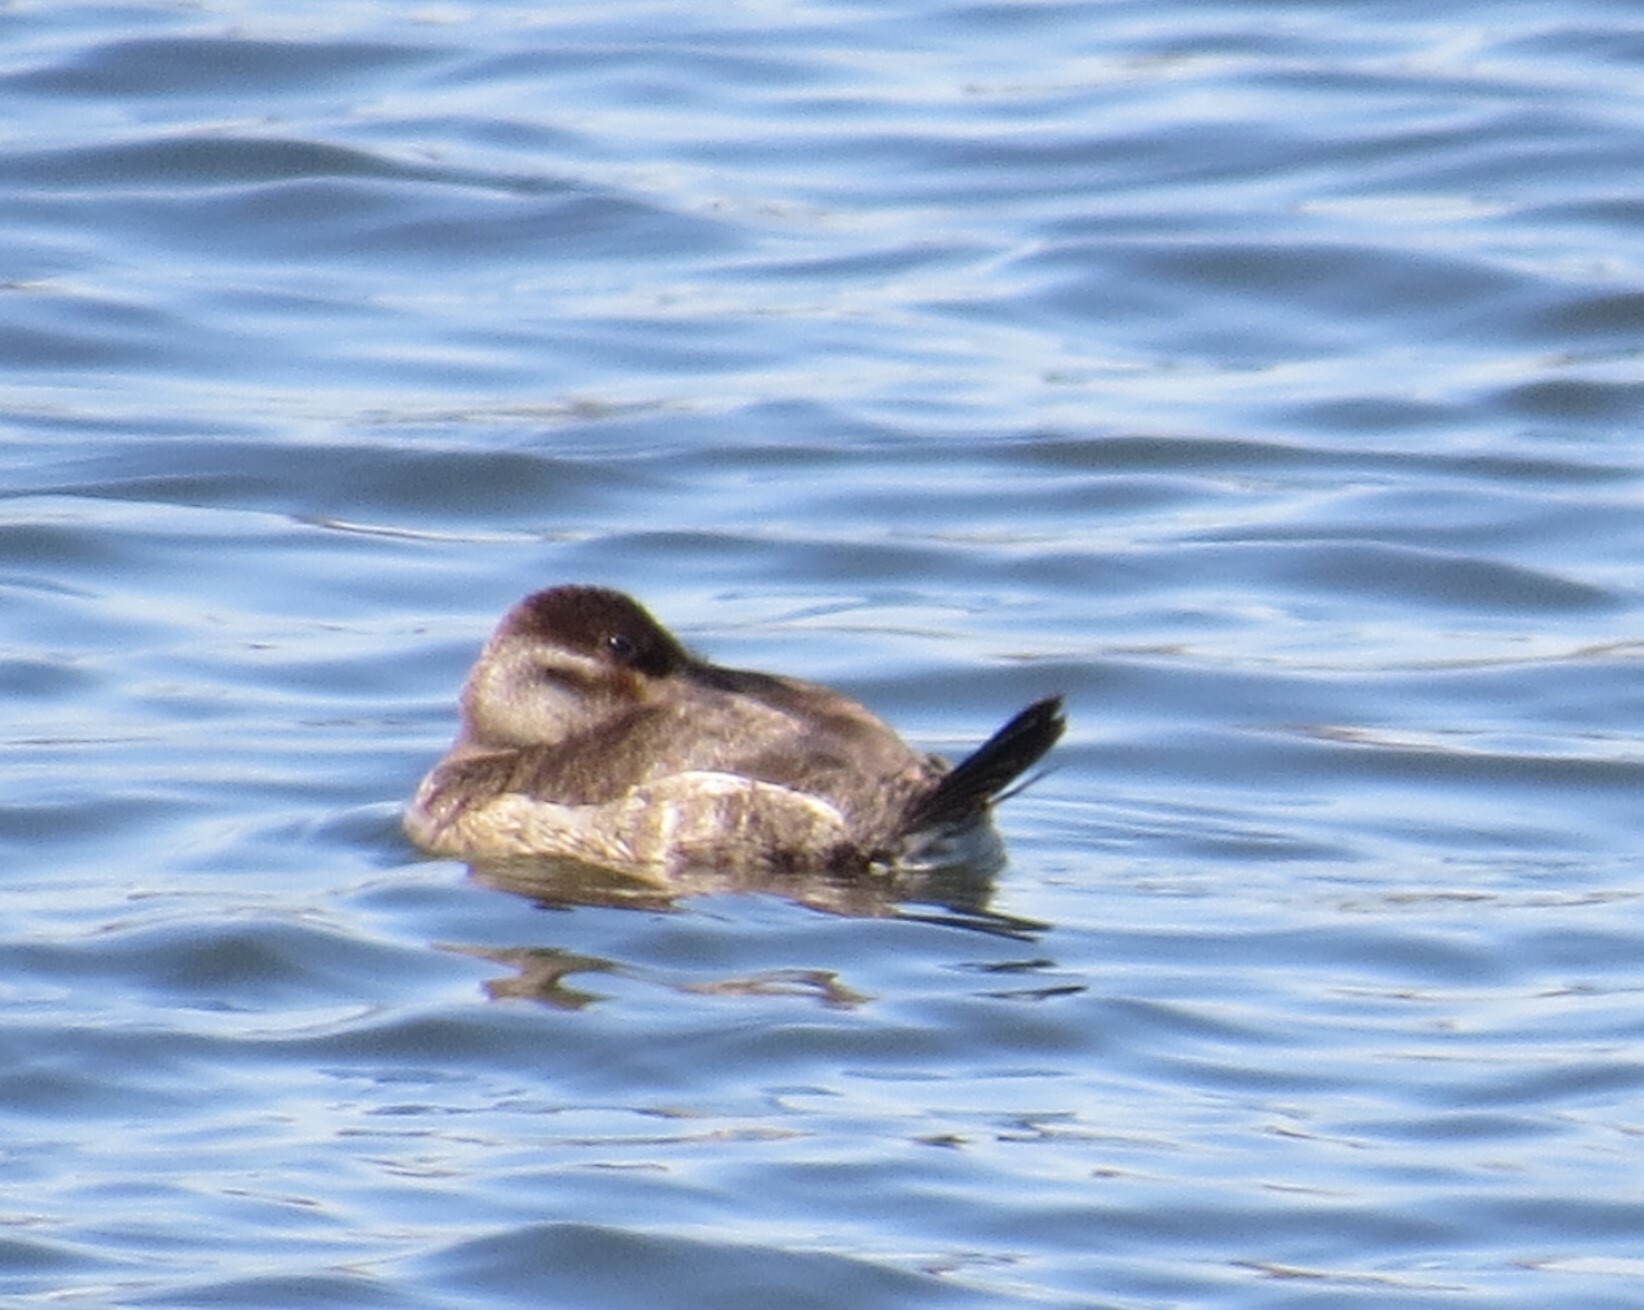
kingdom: Animalia
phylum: Chordata
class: Aves
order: Anseriformes
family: Anatidae
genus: Oxyura
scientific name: Oxyura jamaicensis
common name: Ruddy duck
